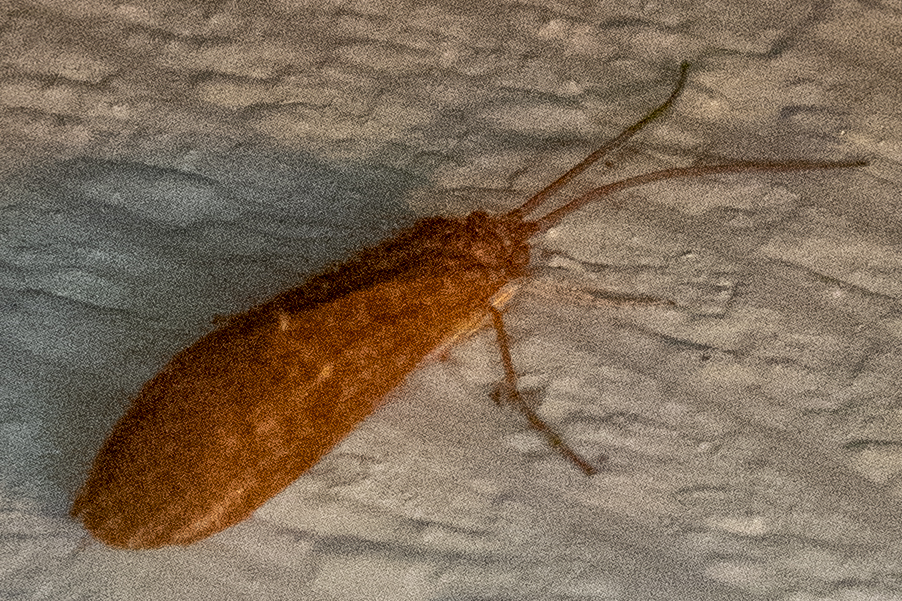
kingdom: Animalia
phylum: Arthropoda
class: Insecta
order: Trichoptera
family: Limnephilidae
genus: Ironoquia
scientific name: Ironoquia
